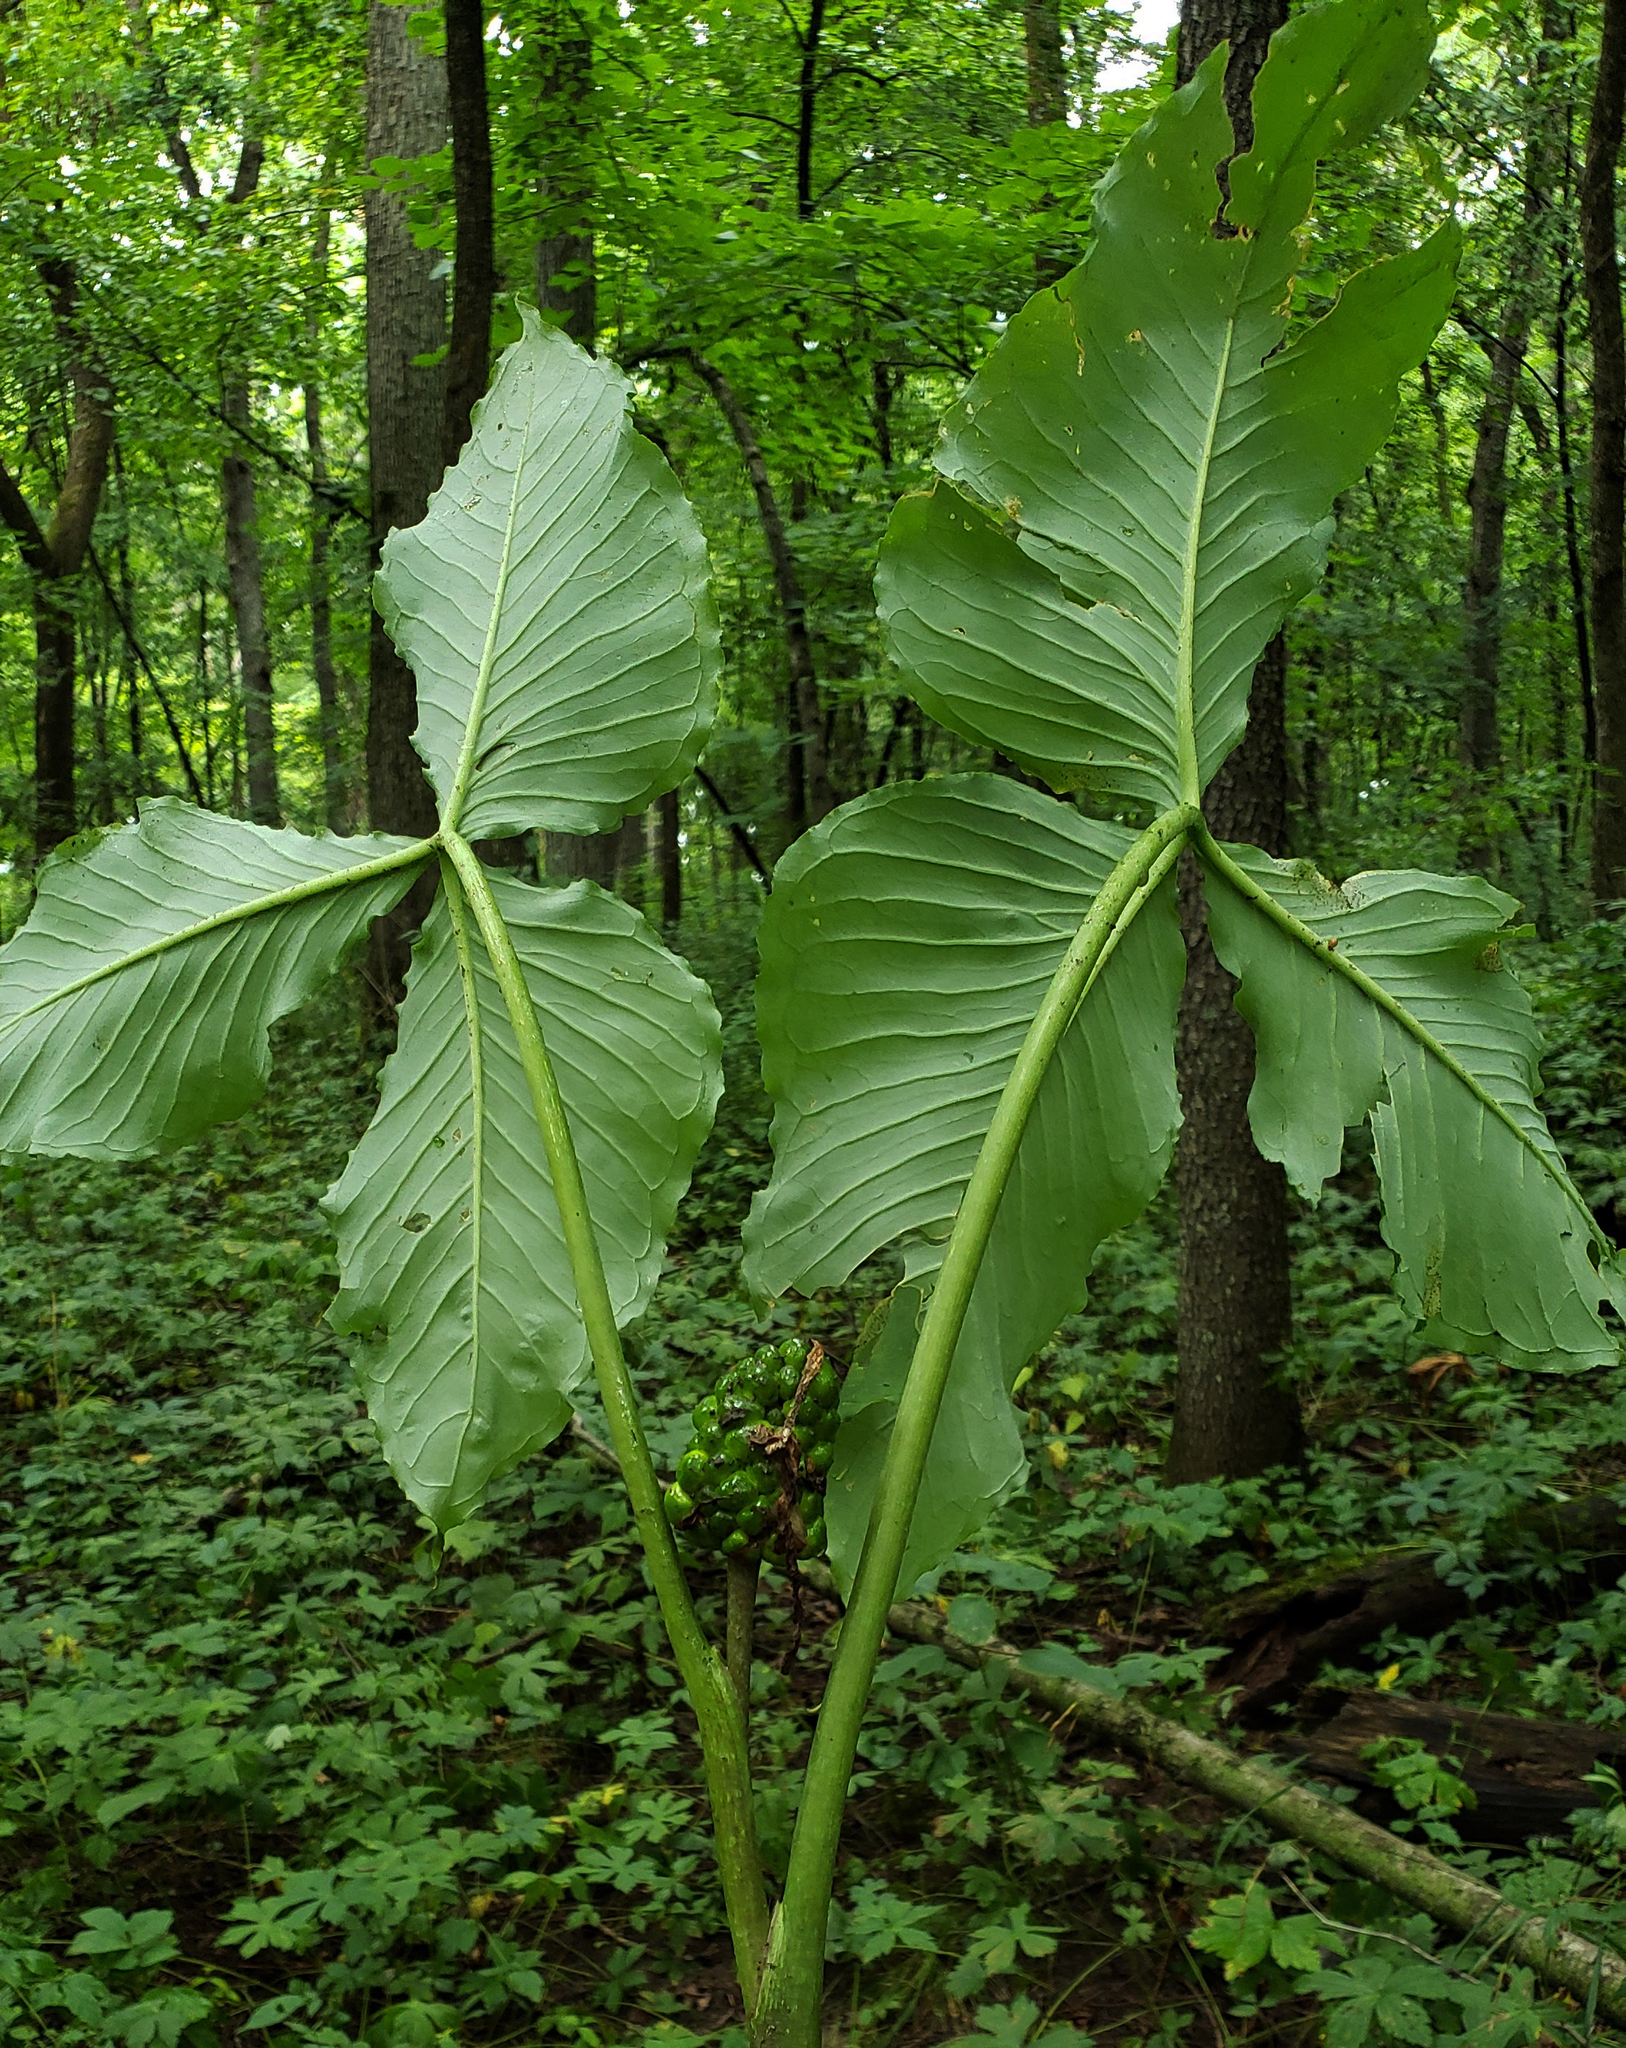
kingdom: Plantae
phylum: Tracheophyta
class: Liliopsida
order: Alismatales
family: Araceae
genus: Arisaema
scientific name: Arisaema triphyllum
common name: Jack-in-the-pulpit
